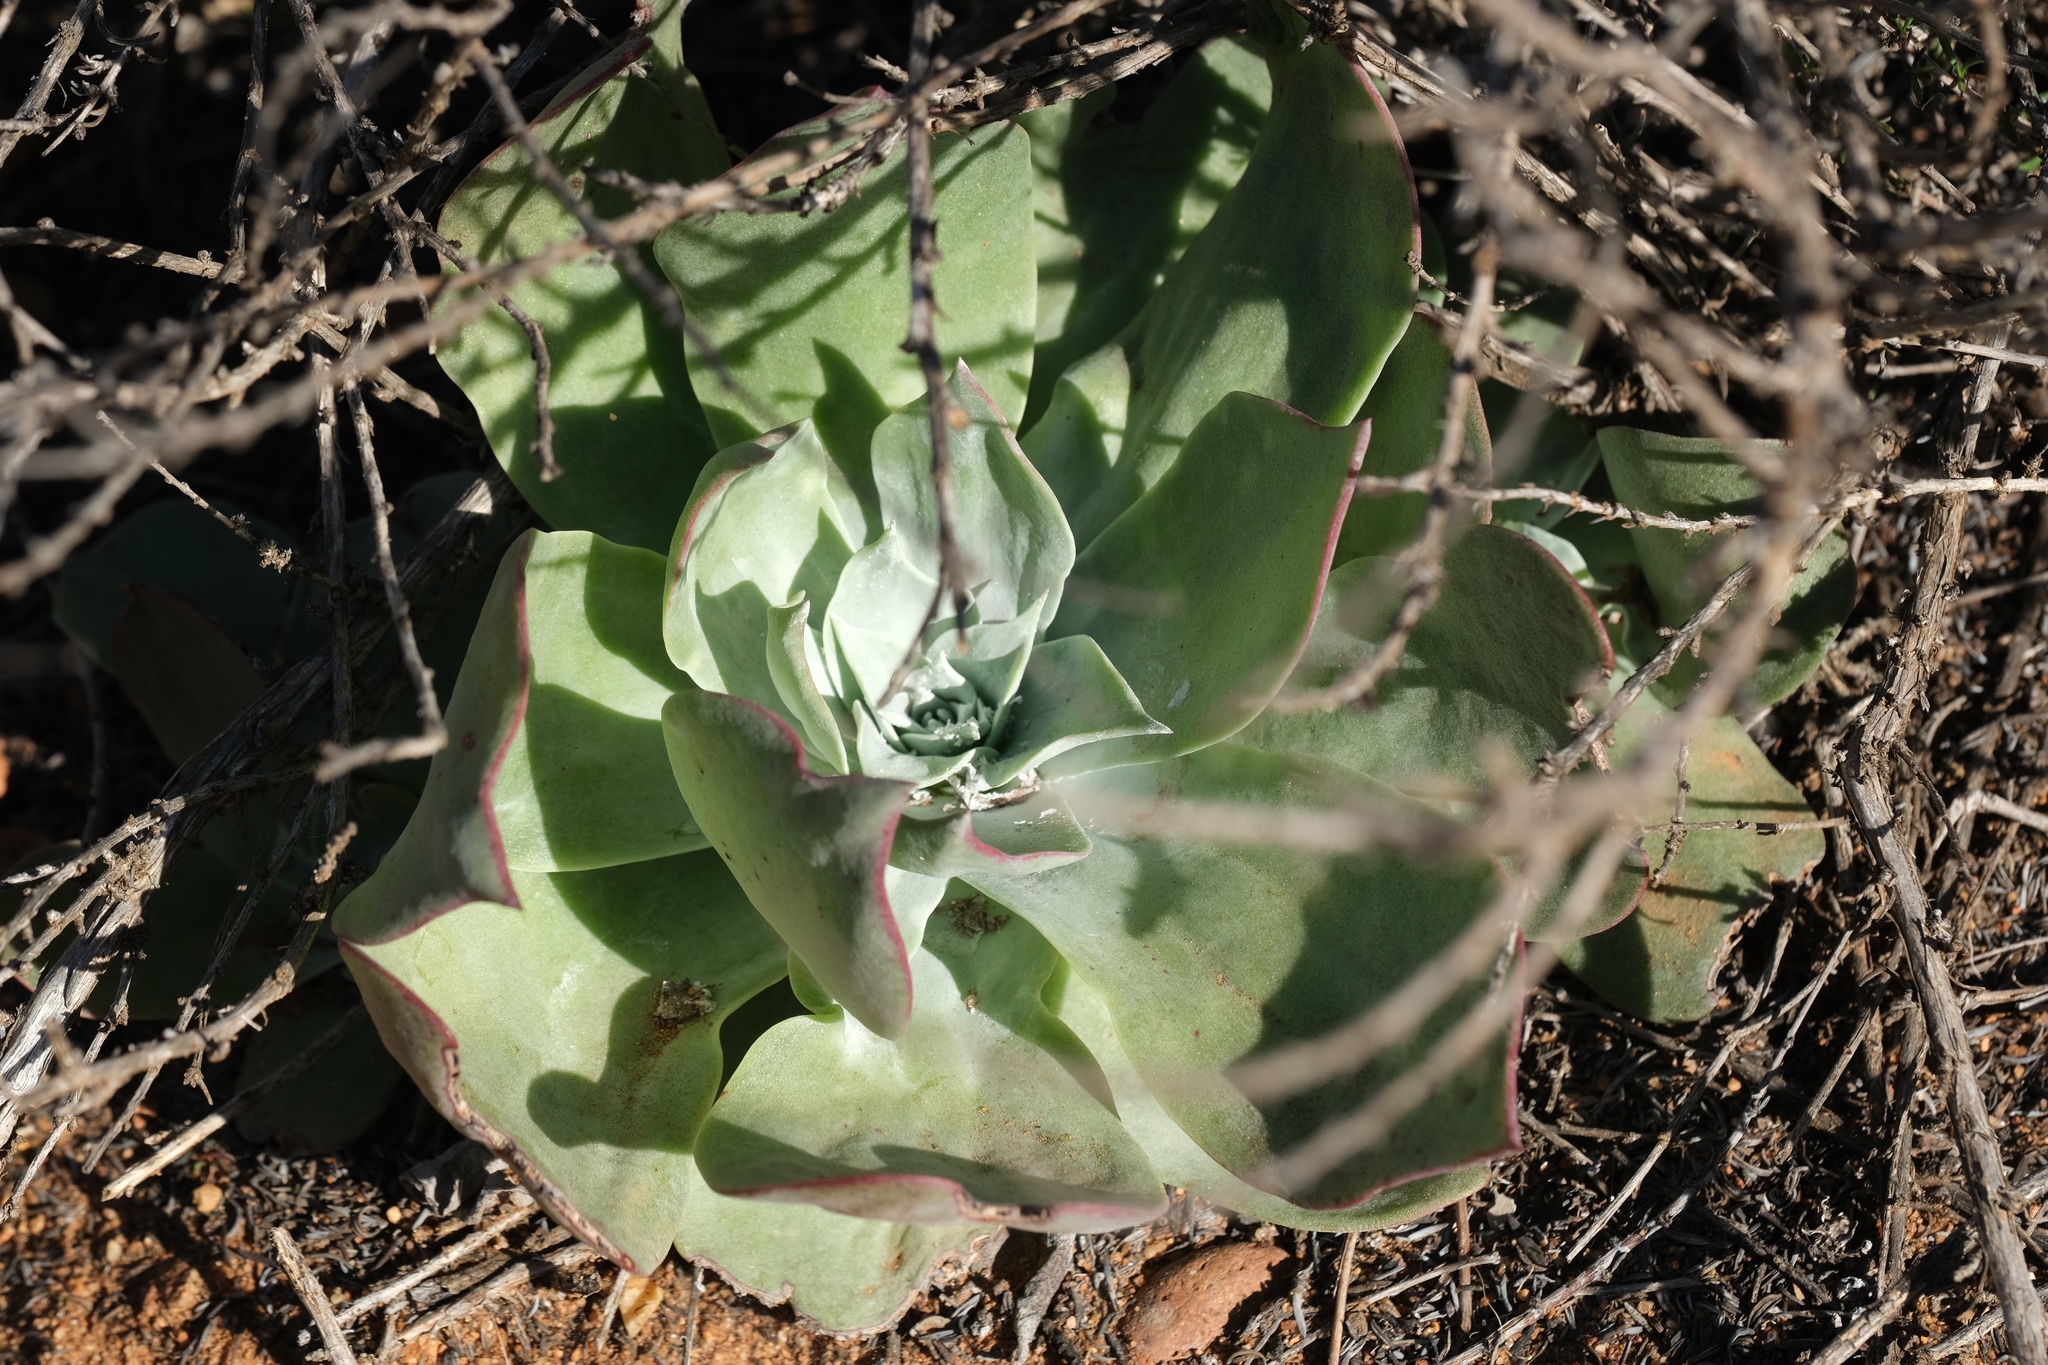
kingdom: Plantae
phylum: Tracheophyta
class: Magnoliopsida
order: Saxifragales
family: Crassulaceae
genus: Dudleya
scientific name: Dudleya pulverulenta
